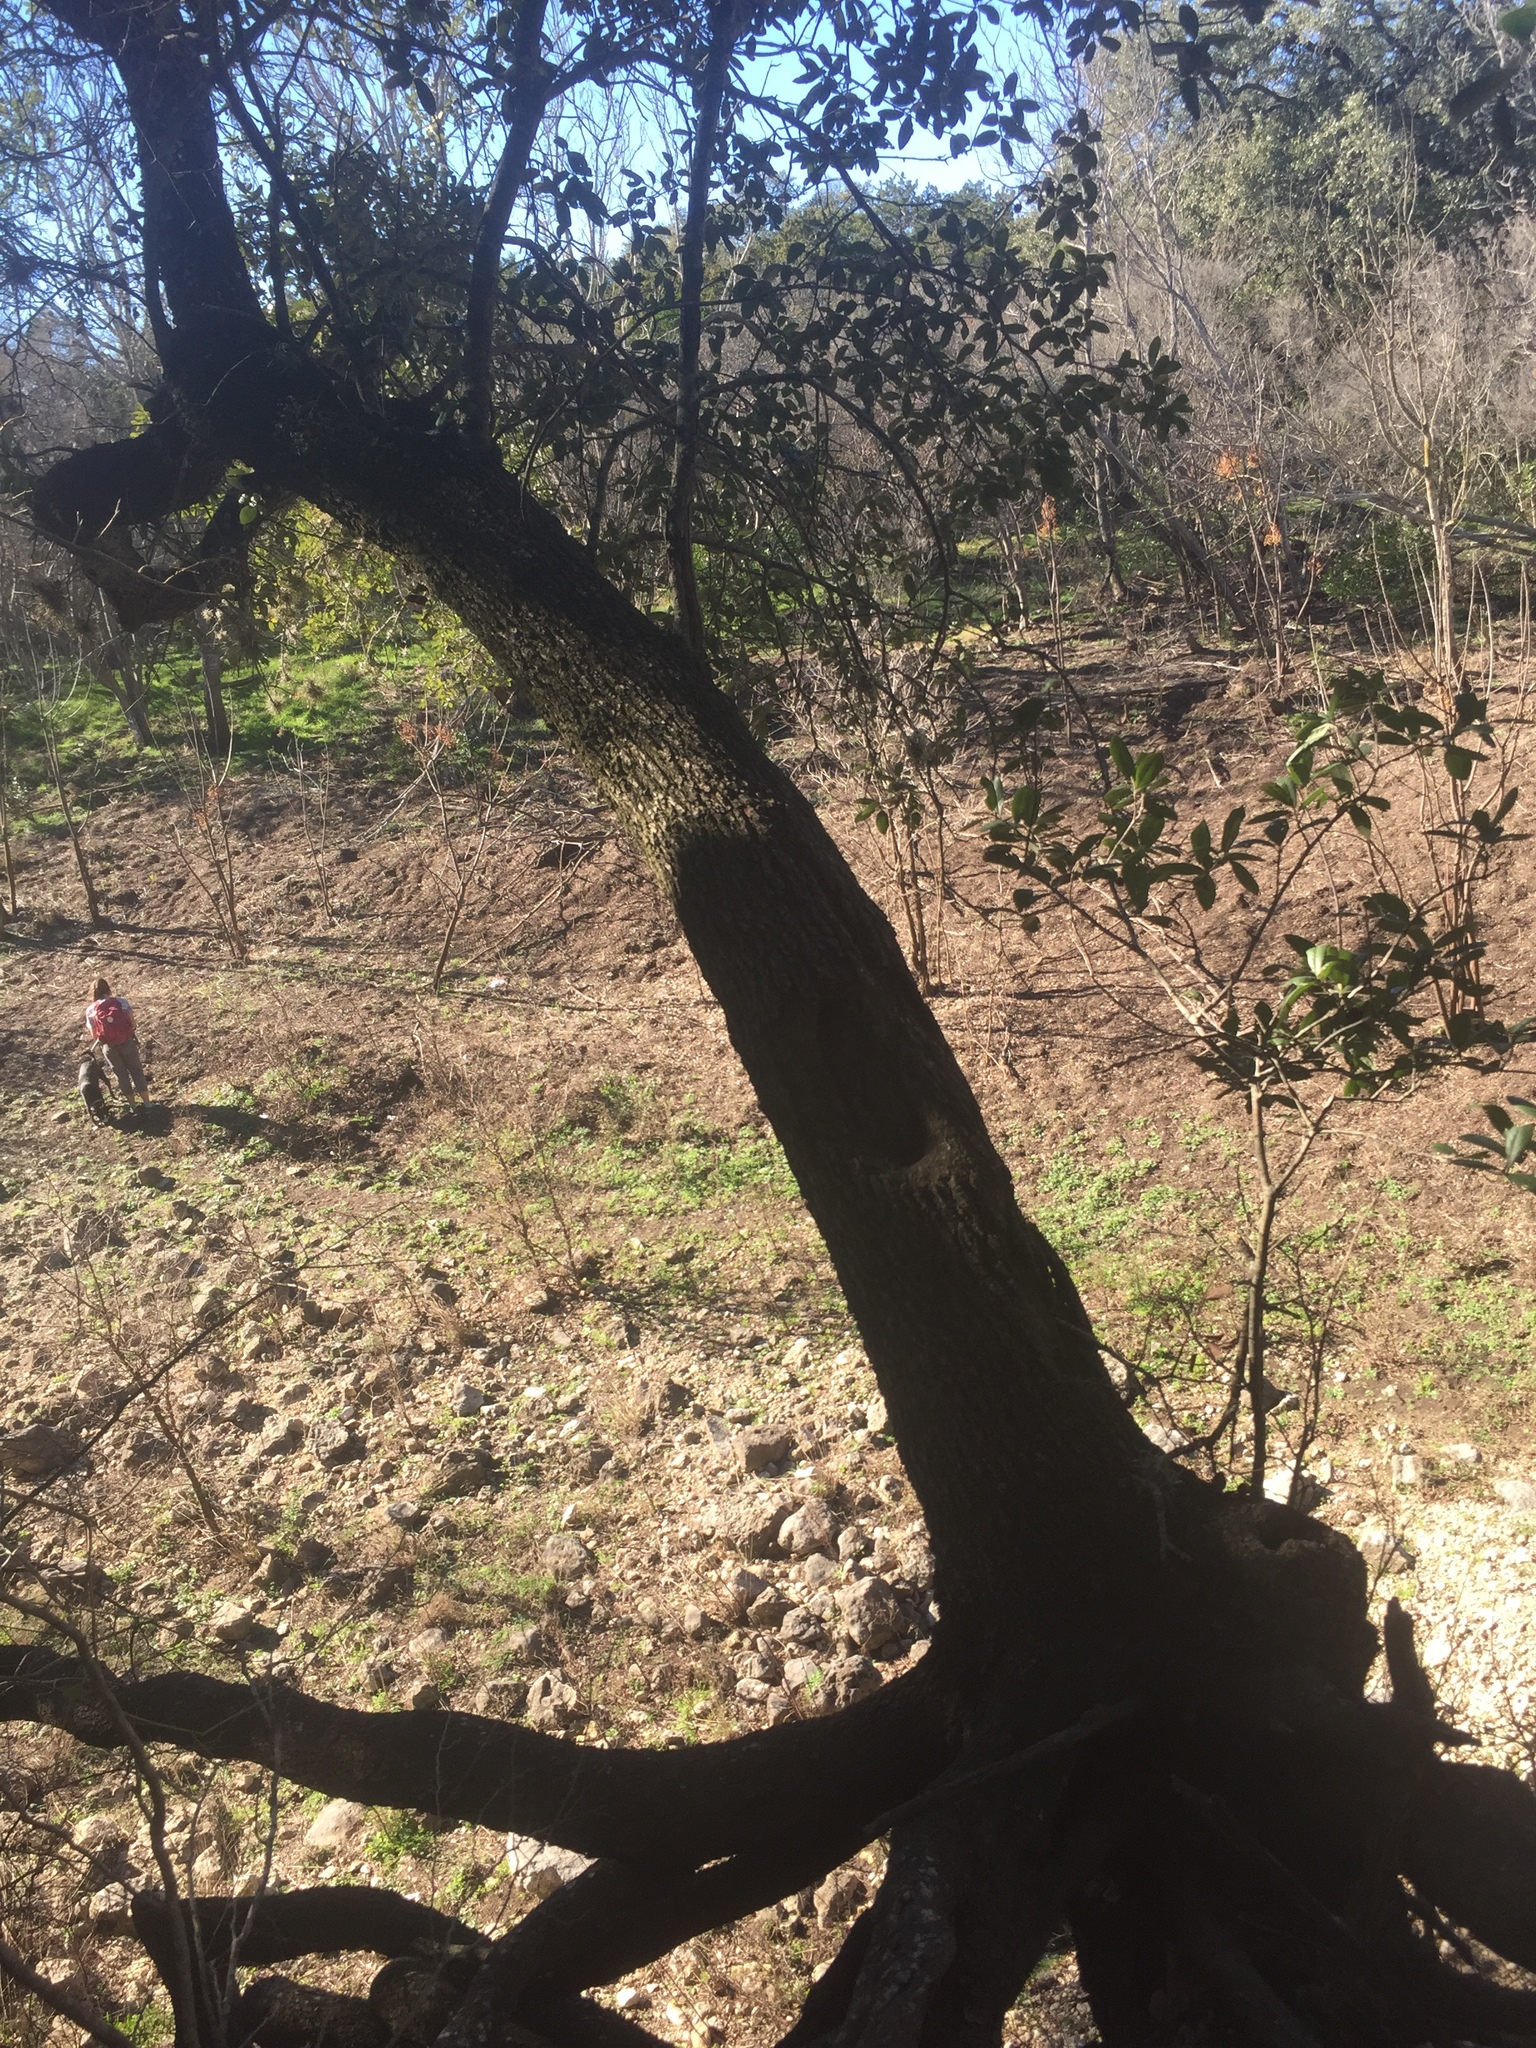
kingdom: Plantae
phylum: Tracheophyta
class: Magnoliopsida
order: Fagales
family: Fagaceae
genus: Quercus
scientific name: Quercus fusiformis
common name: Texas live oak
